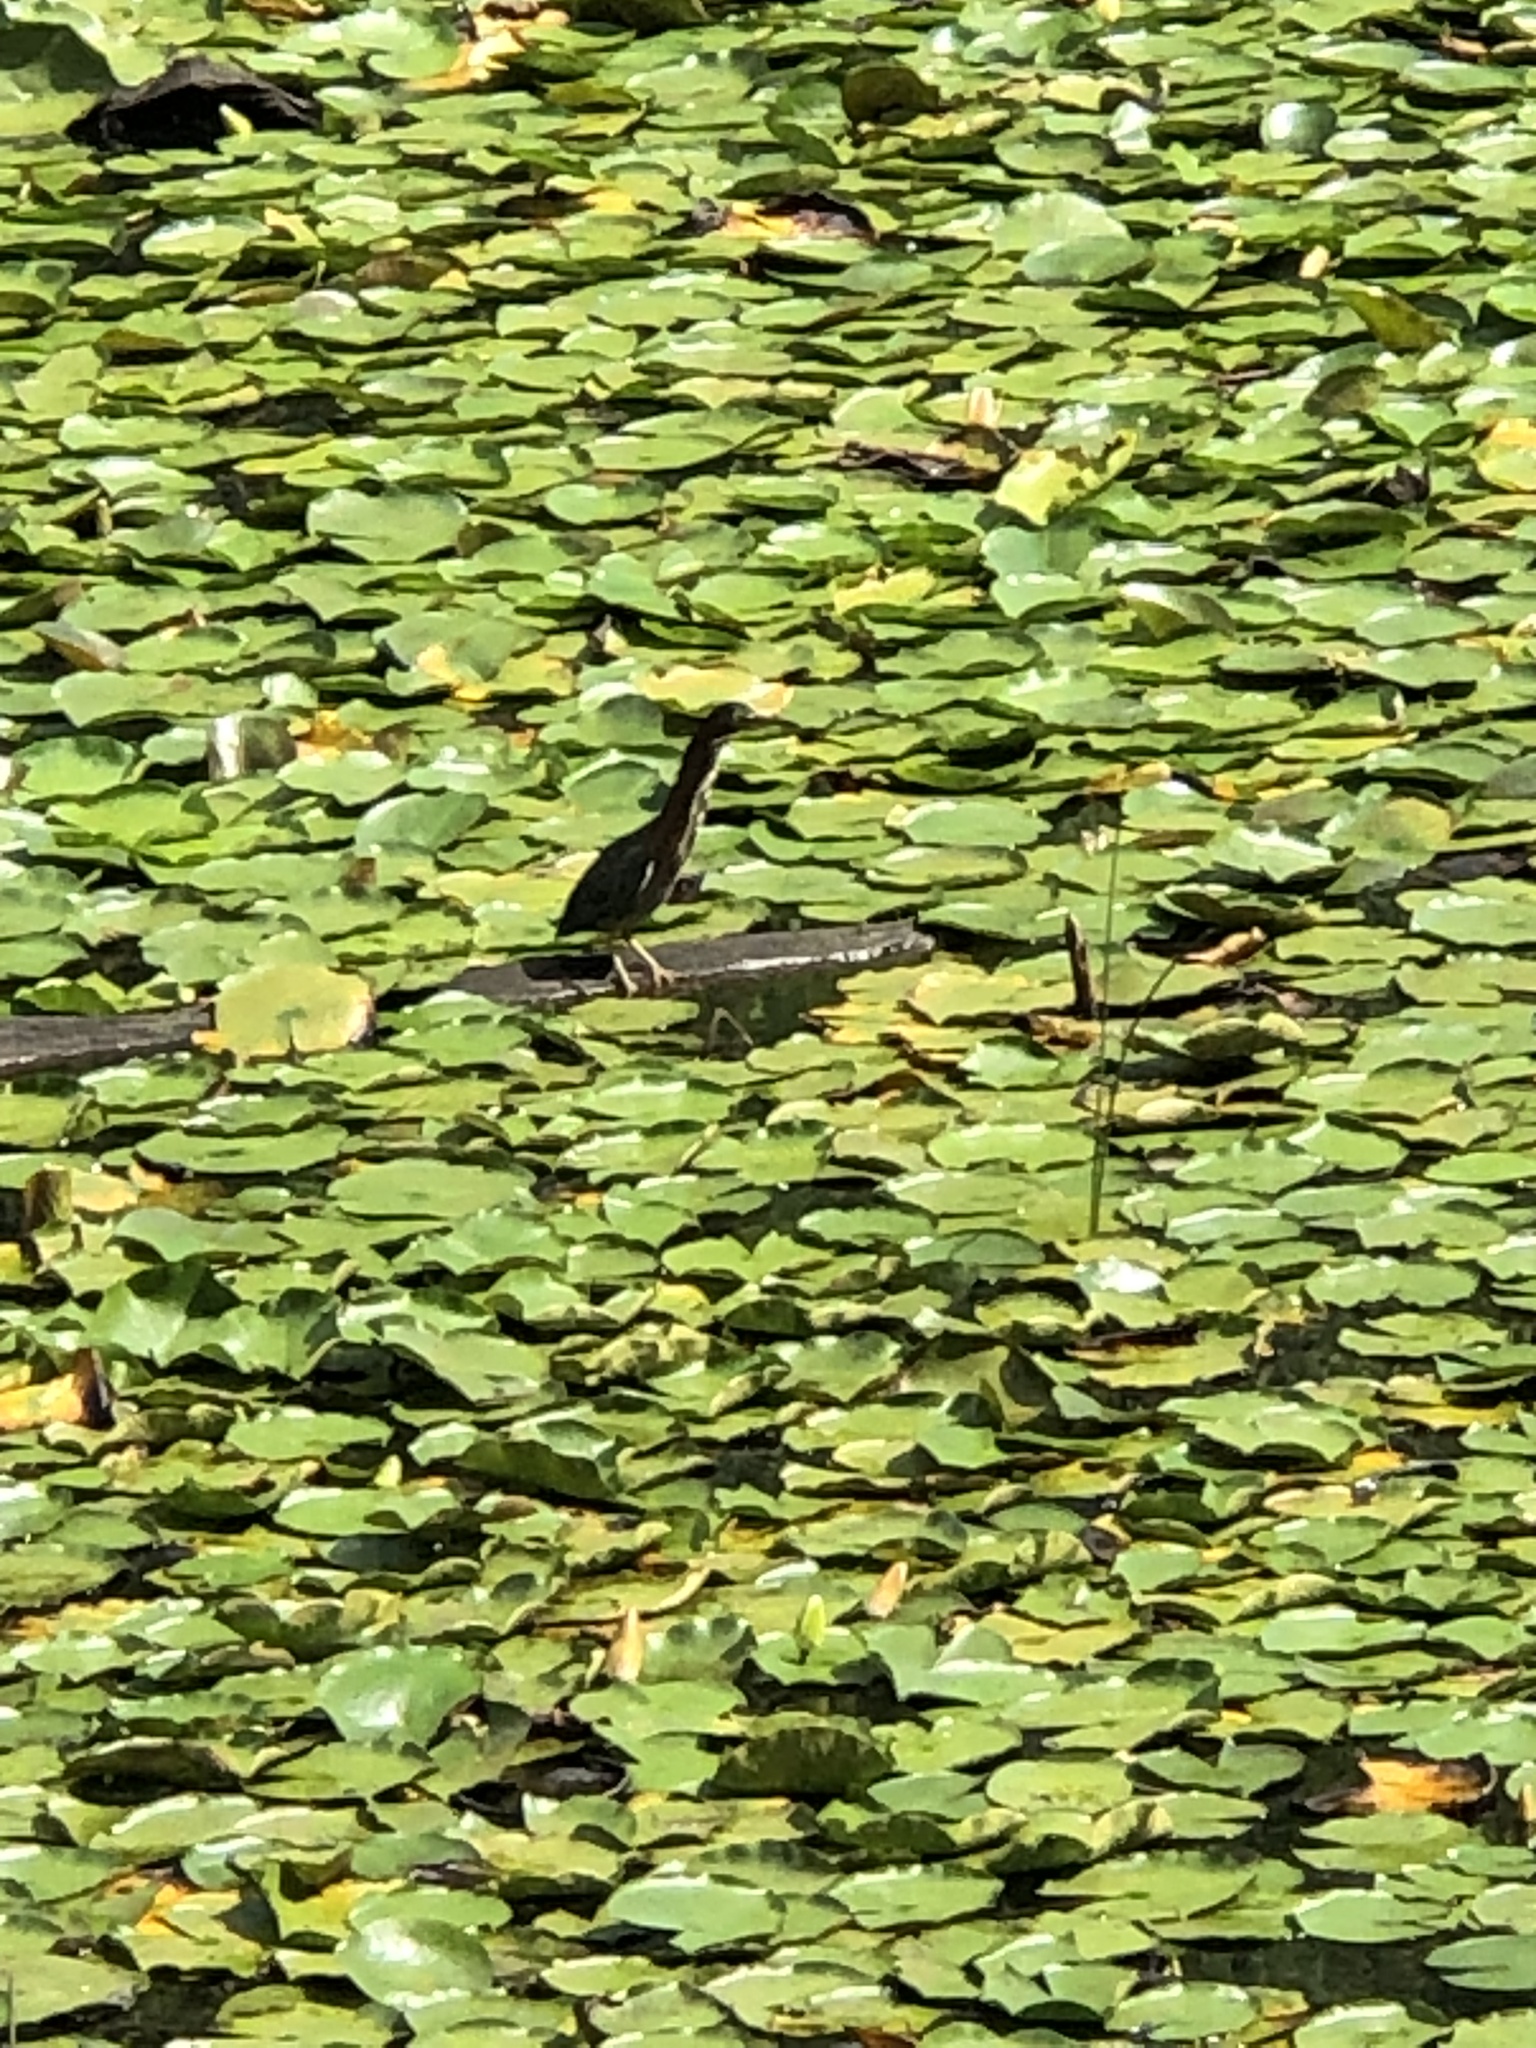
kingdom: Animalia
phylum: Chordata
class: Aves
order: Pelecaniformes
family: Ardeidae
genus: Butorides
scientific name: Butorides virescens
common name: Green heron
